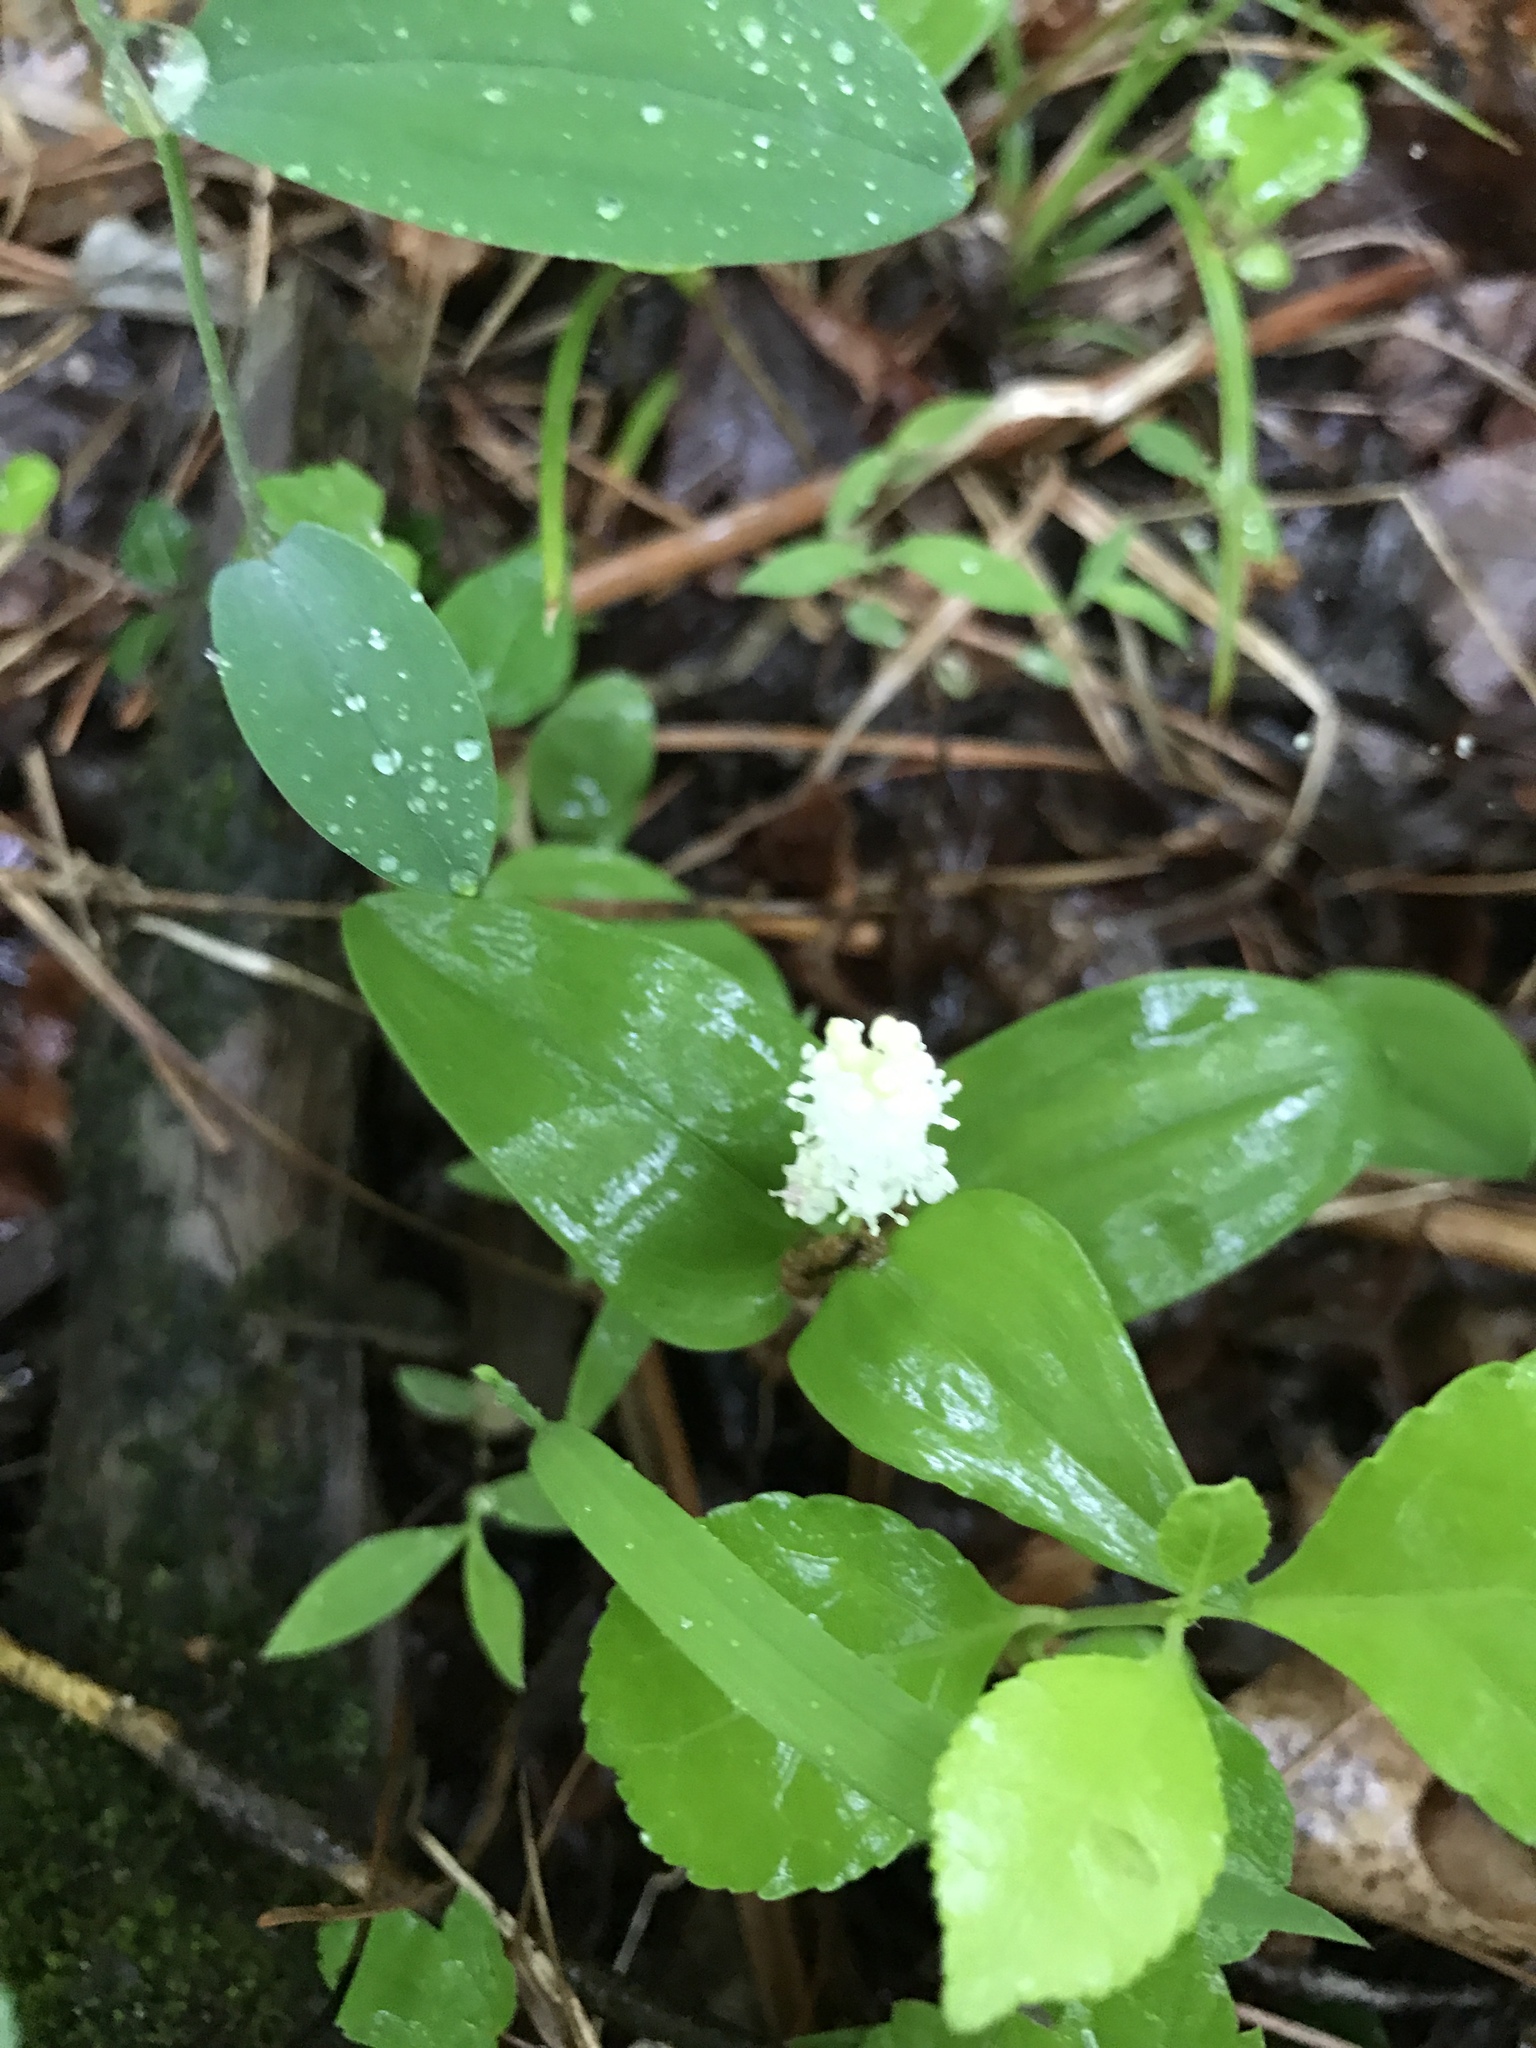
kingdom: Plantae
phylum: Tracheophyta
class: Liliopsida
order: Asparagales
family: Asparagaceae
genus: Maianthemum
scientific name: Maianthemum canadense
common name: False lily-of-the-valley
